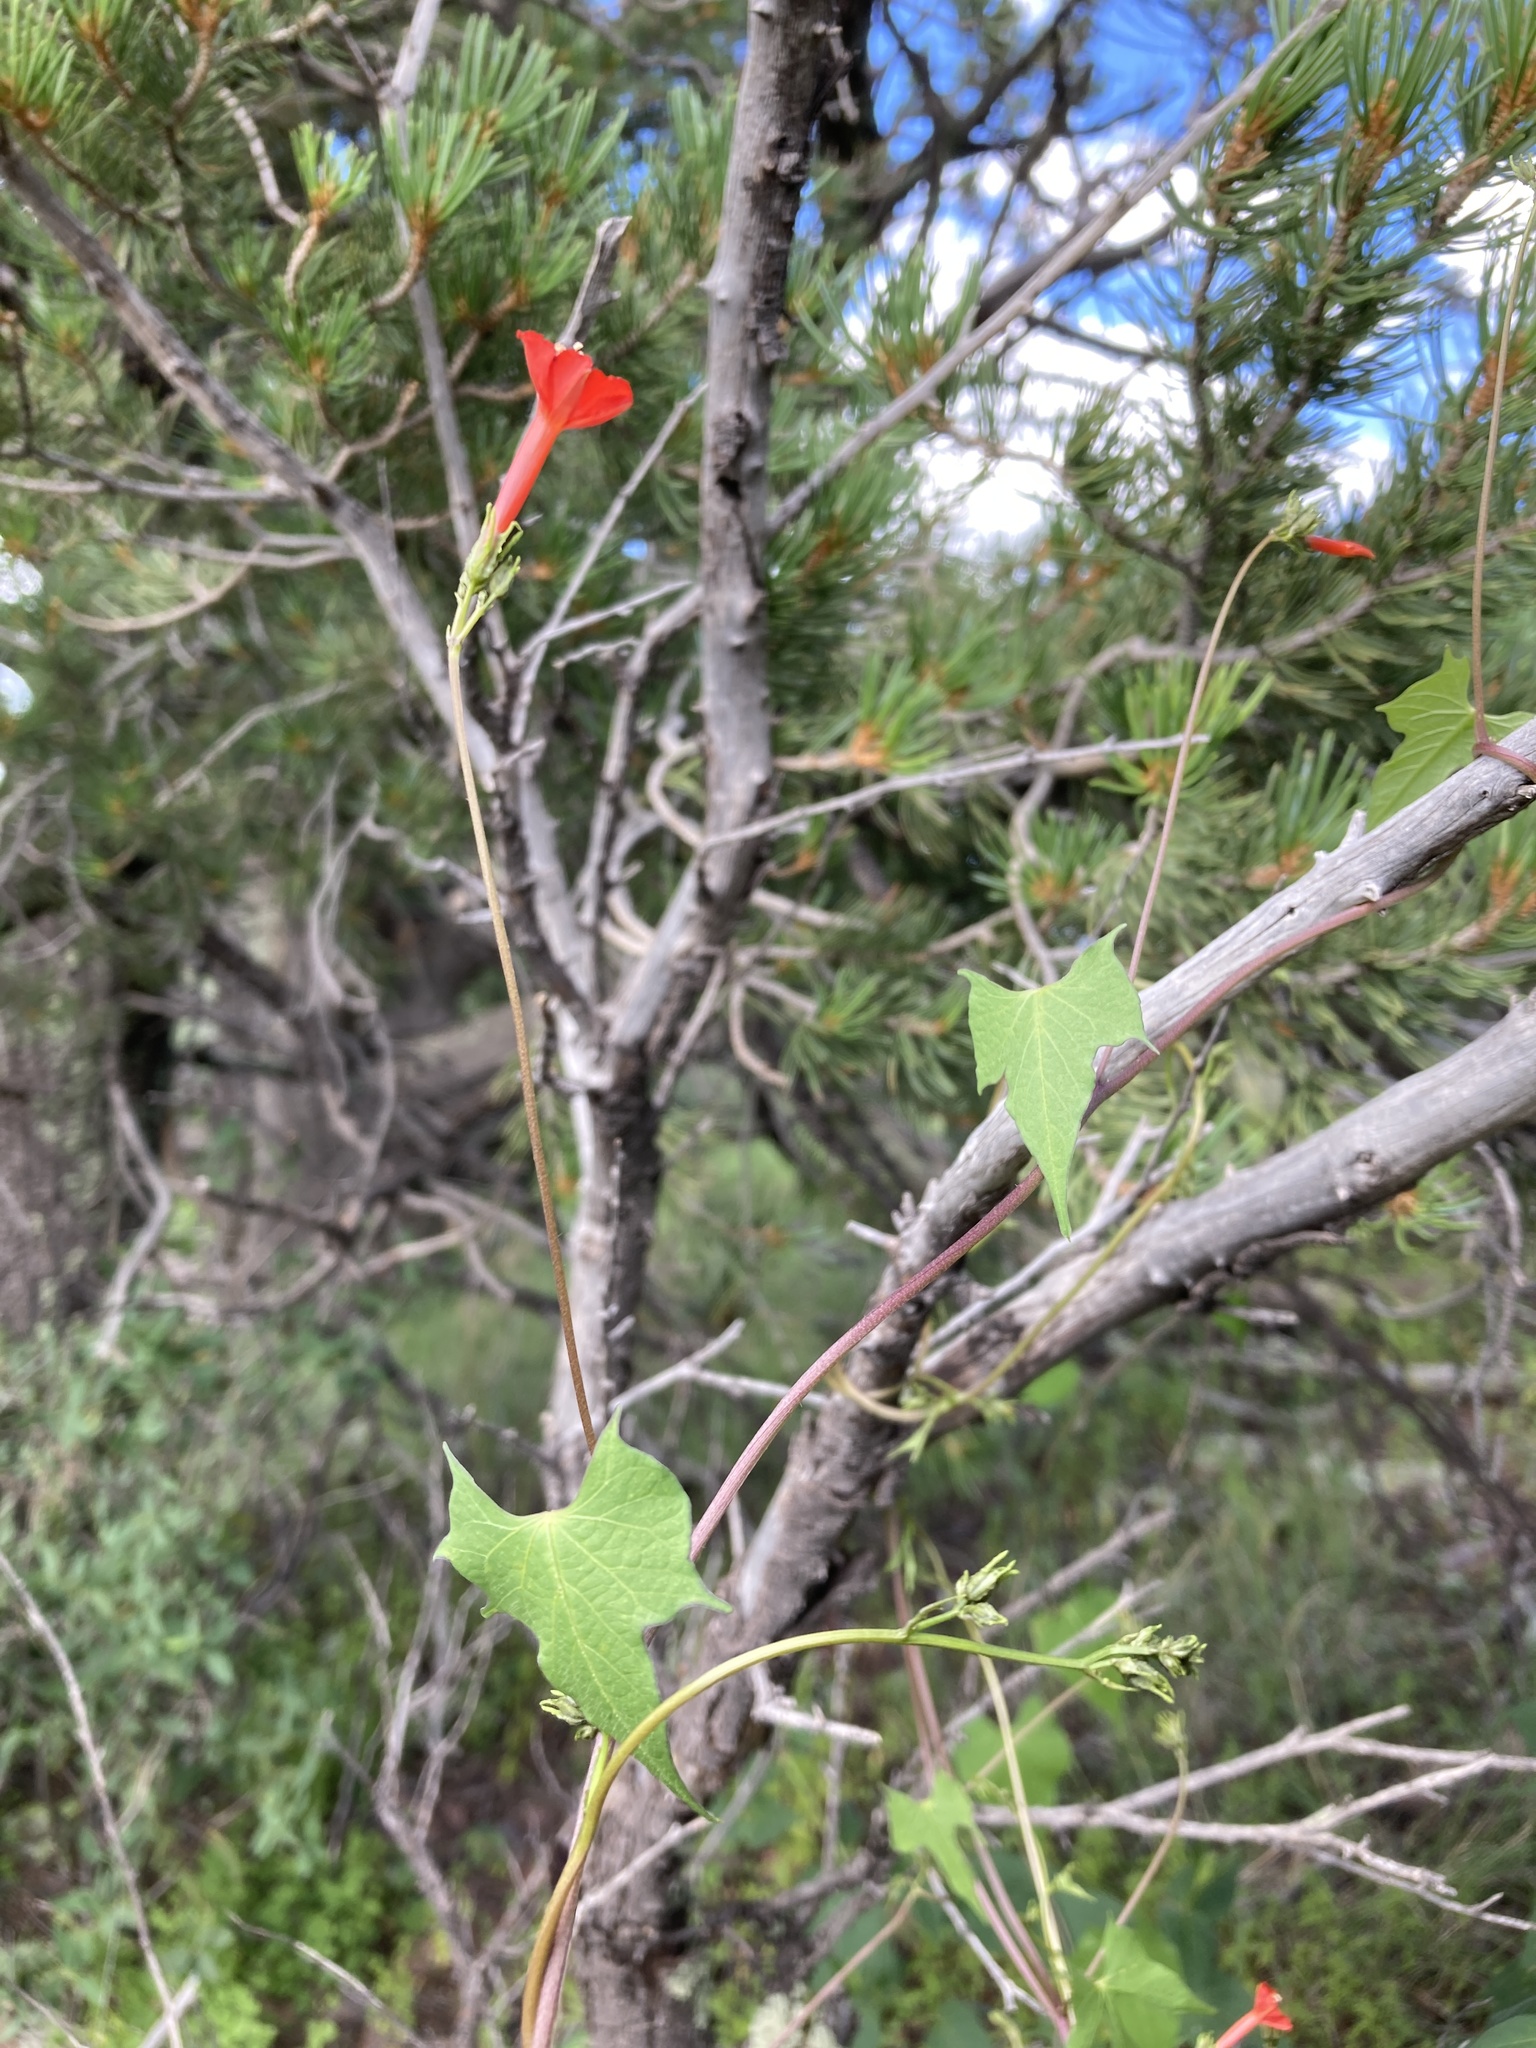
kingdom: Plantae
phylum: Tracheophyta
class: Magnoliopsida
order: Solanales
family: Convolvulaceae
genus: Ipomoea
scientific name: Ipomoea cristulata
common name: Trans-pecos morning-glory
